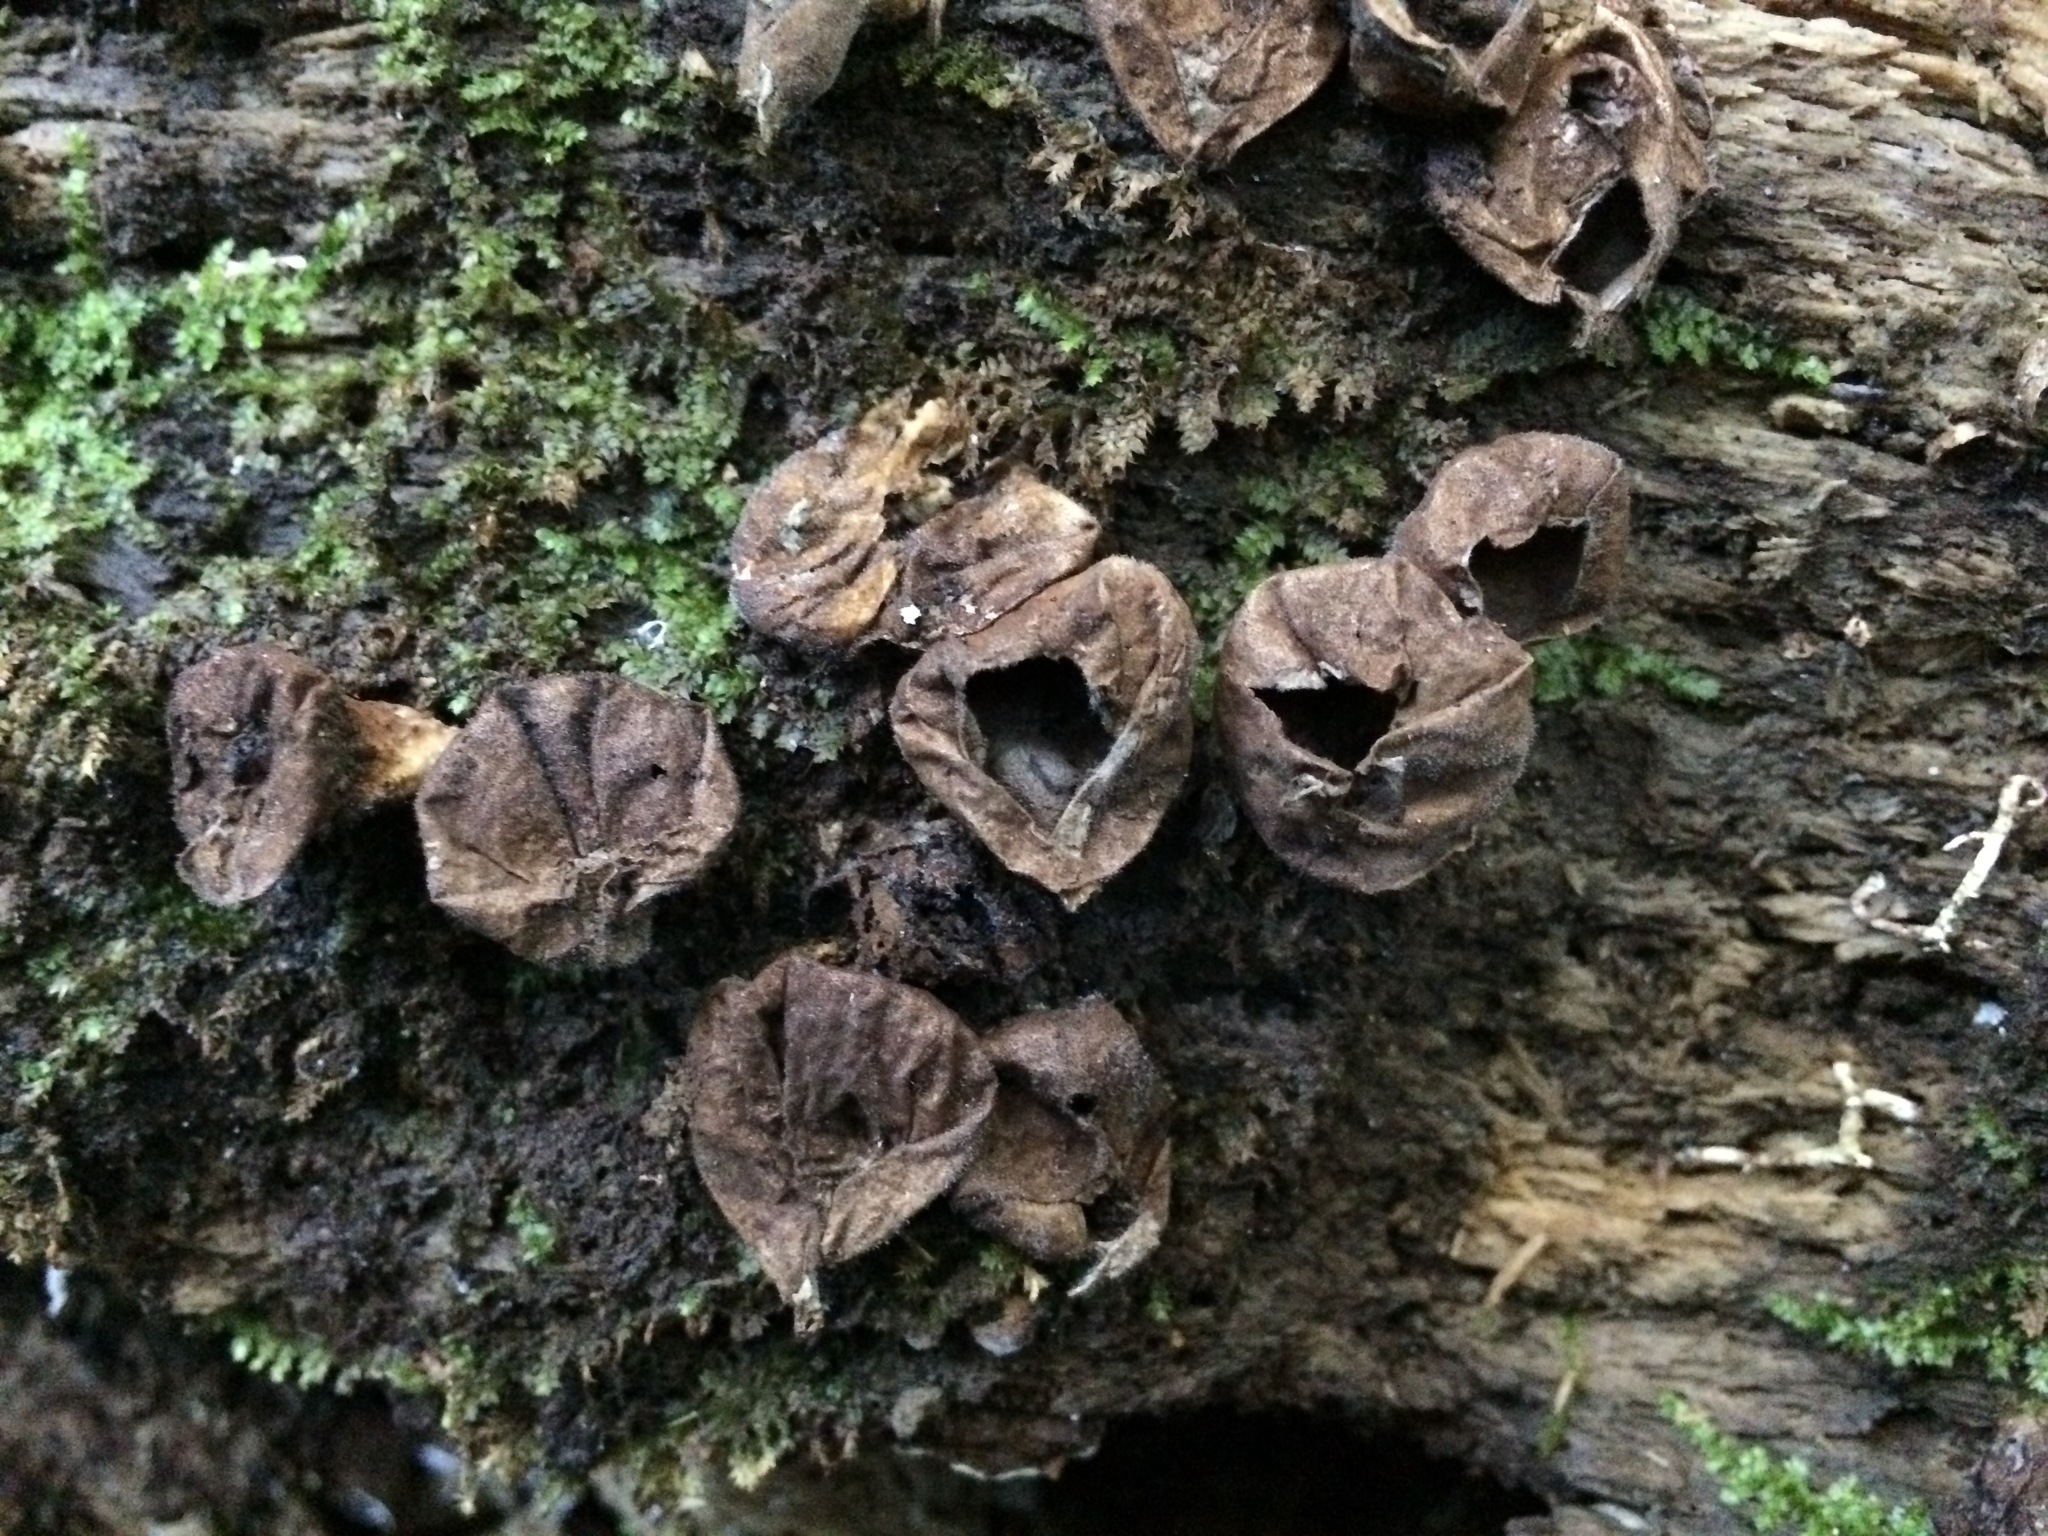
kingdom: Fungi
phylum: Basidiomycota
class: Agaricomycetes
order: Agaricales
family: Lycoperdaceae
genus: Apioperdon
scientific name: Apioperdon pyriforme
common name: Pear-shaped puffball
